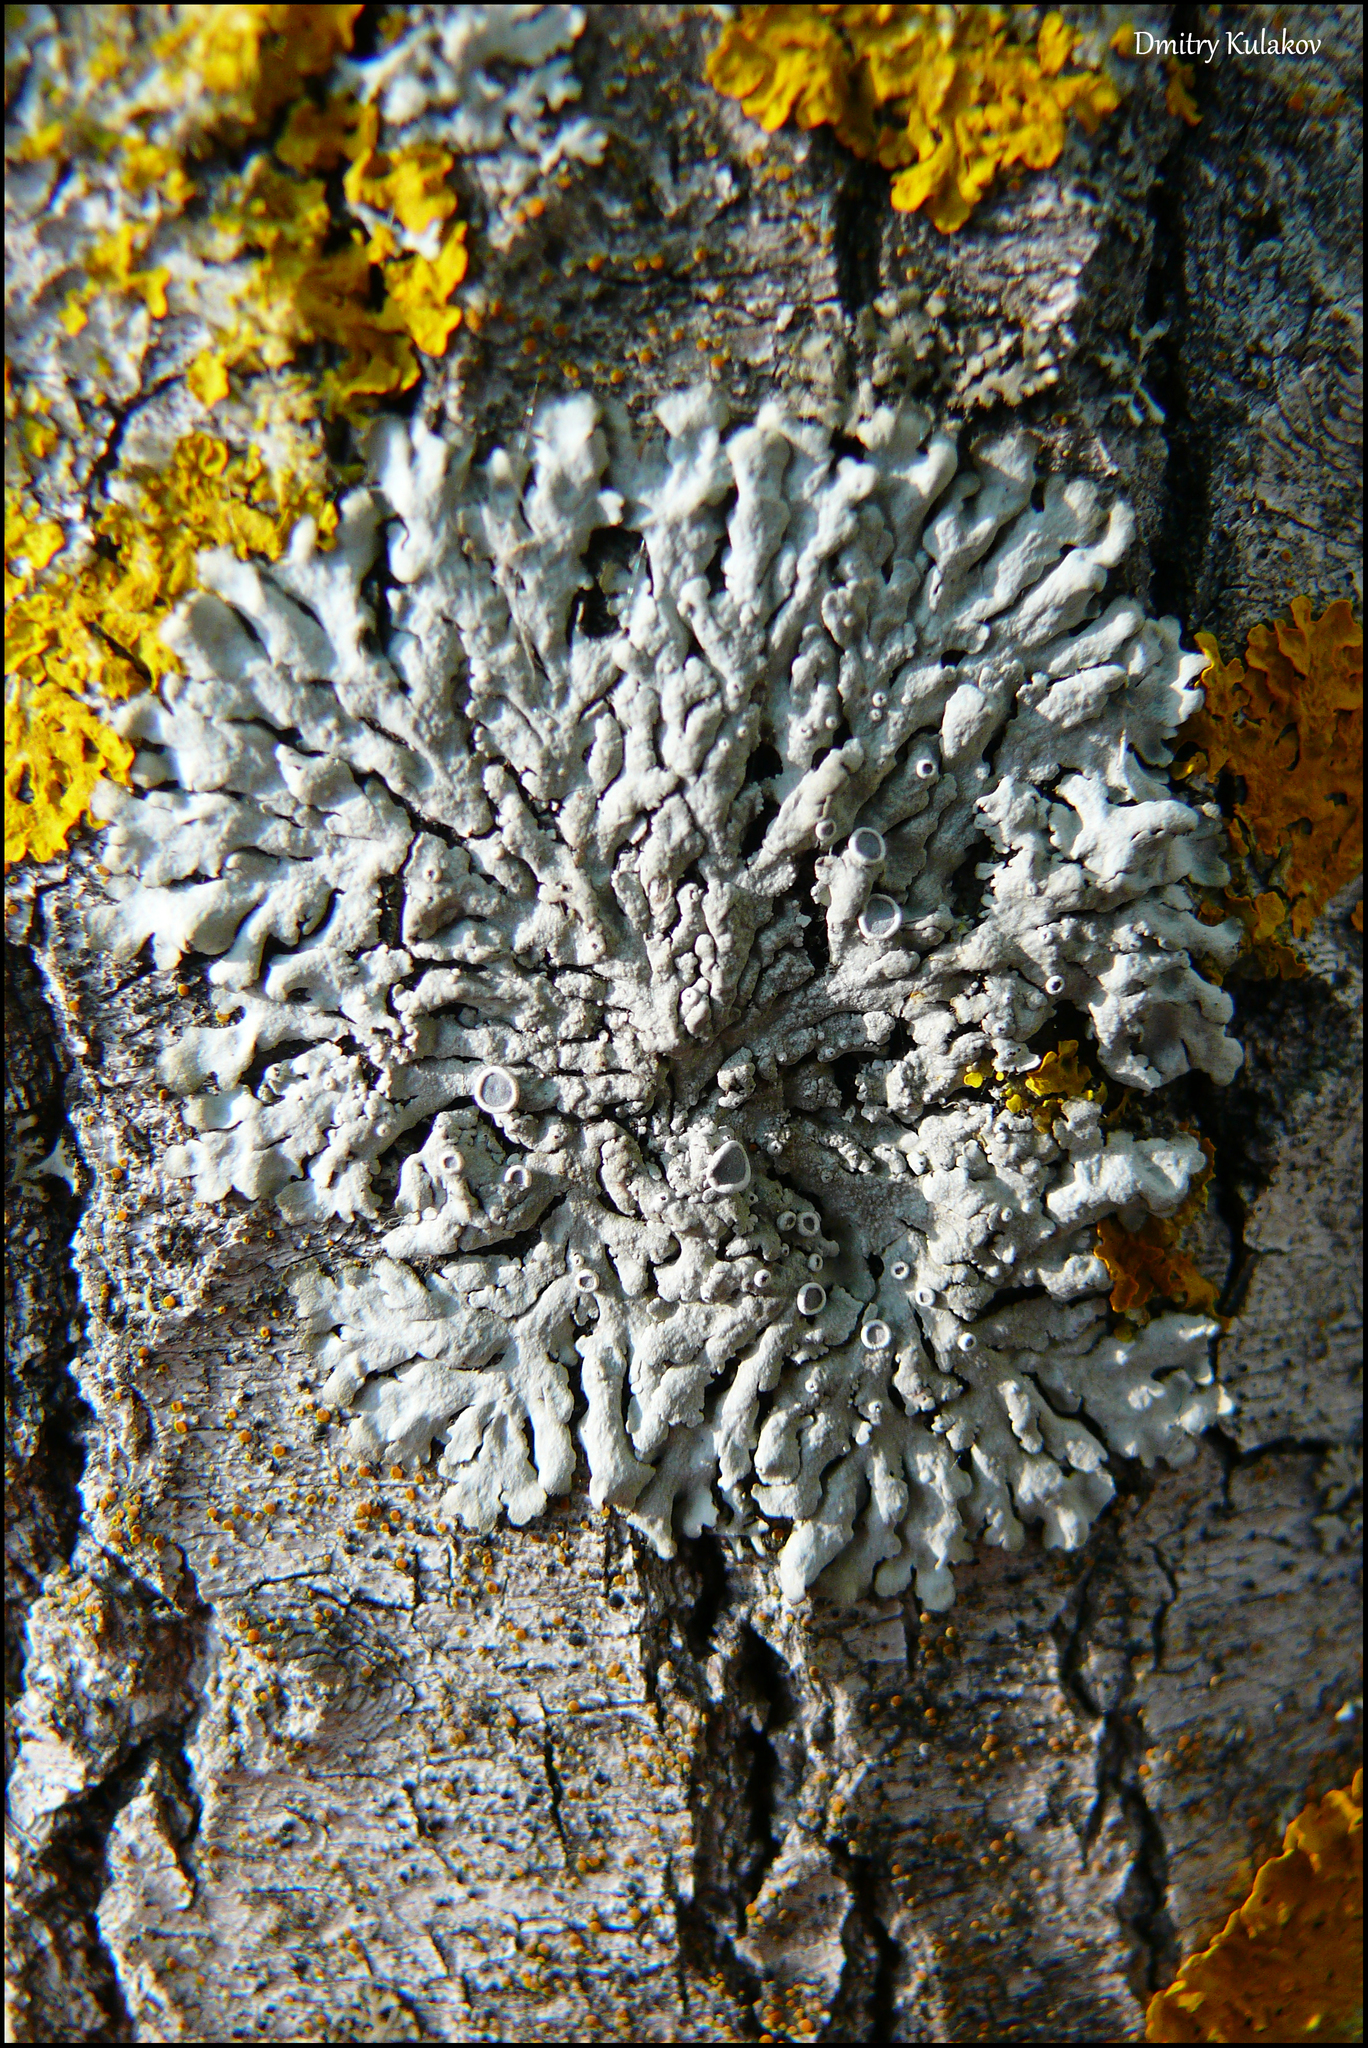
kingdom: Fungi
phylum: Ascomycota
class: Lecanoromycetes
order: Caliciales
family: Physciaceae
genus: Physcia
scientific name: Physcia aipolia
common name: Hoary rosette lichen
